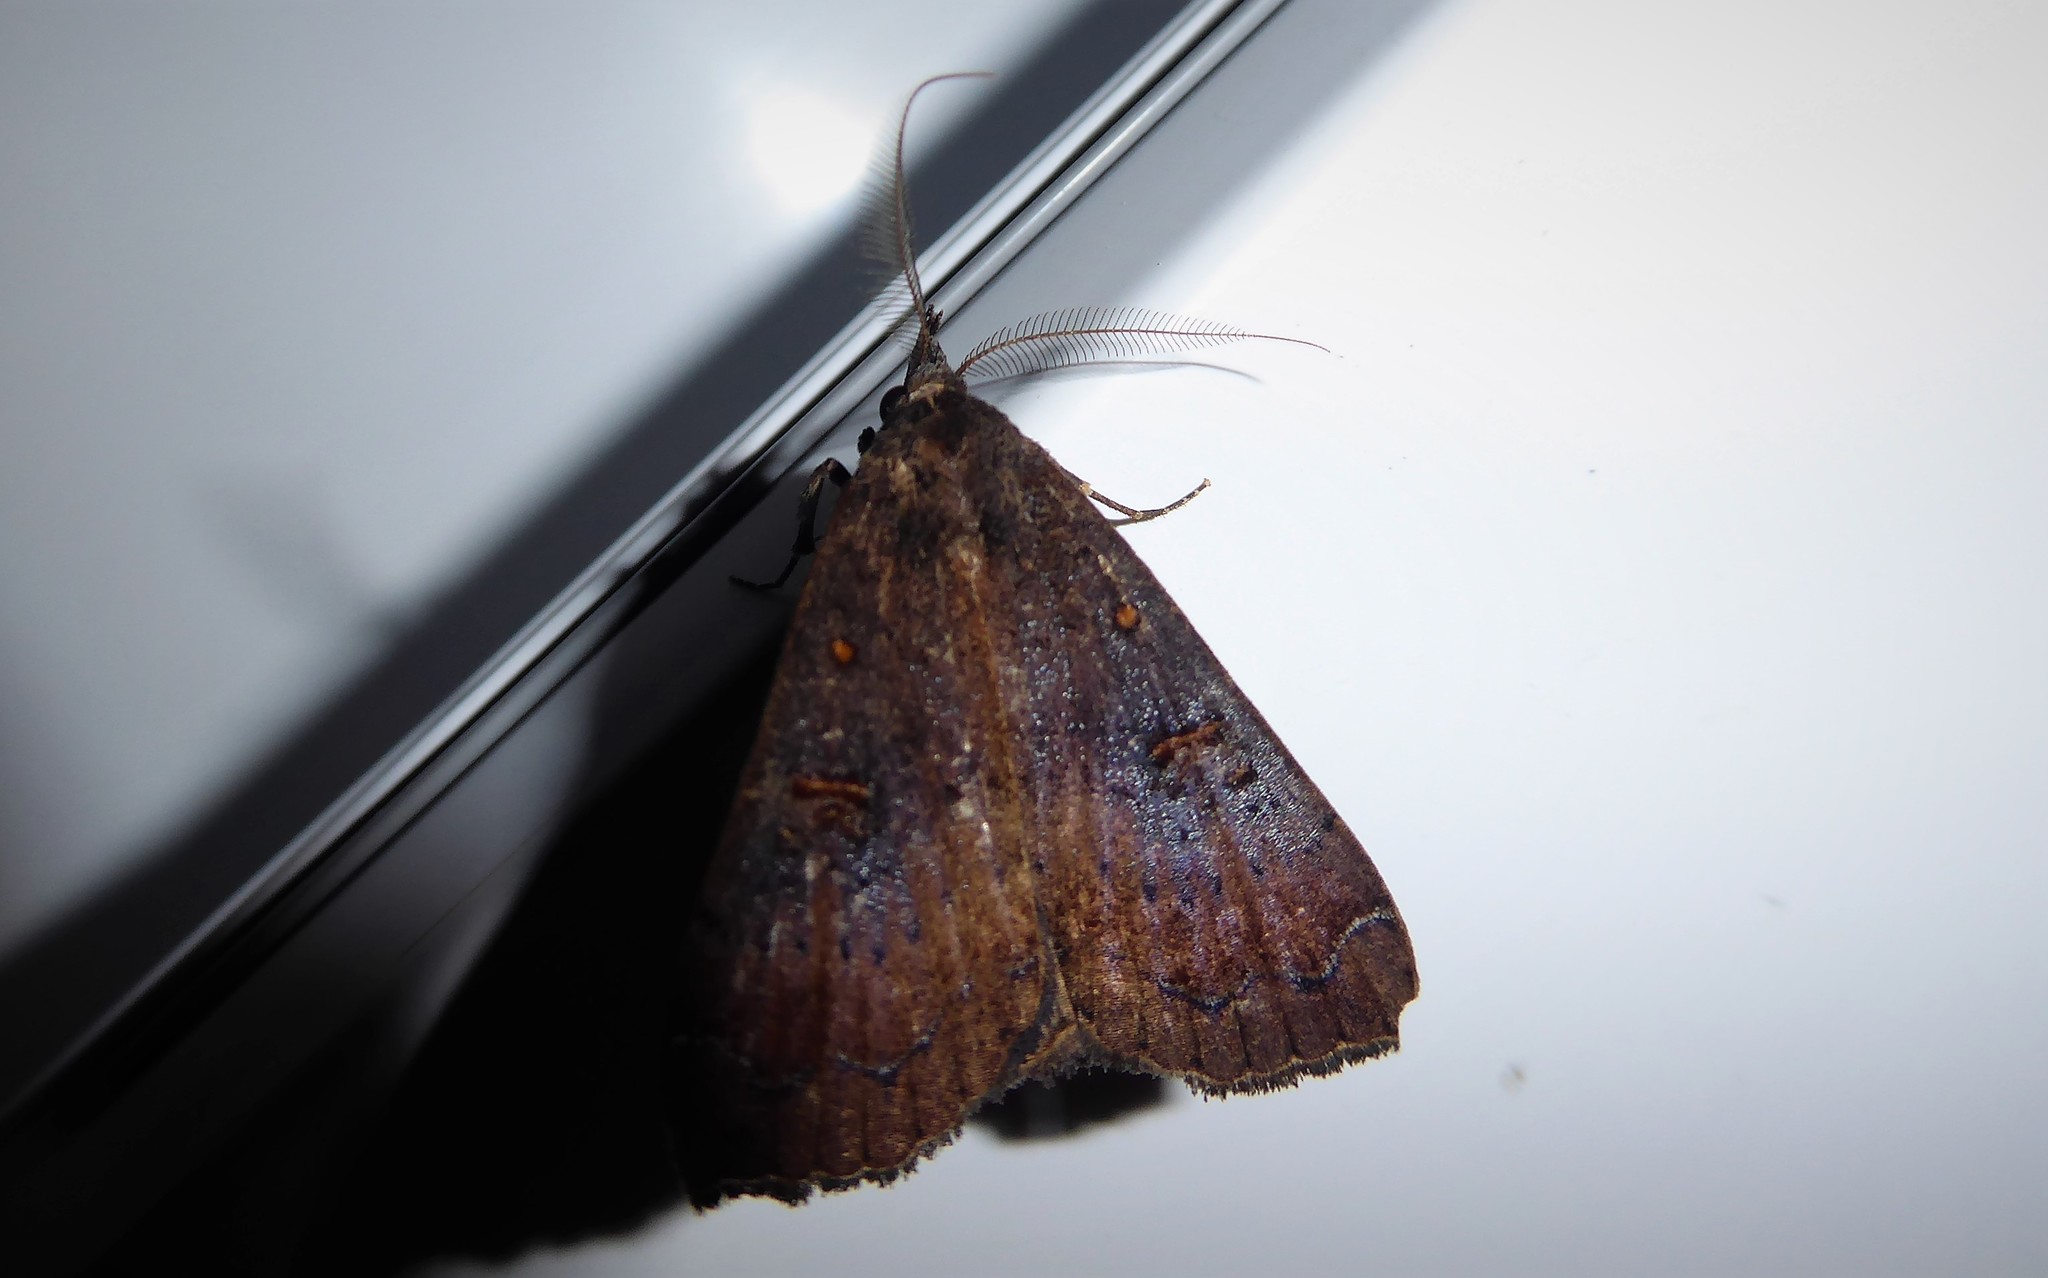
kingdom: Animalia
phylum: Arthropoda
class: Insecta
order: Lepidoptera
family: Erebidae
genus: Rhapsa
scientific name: Rhapsa scotosialis
